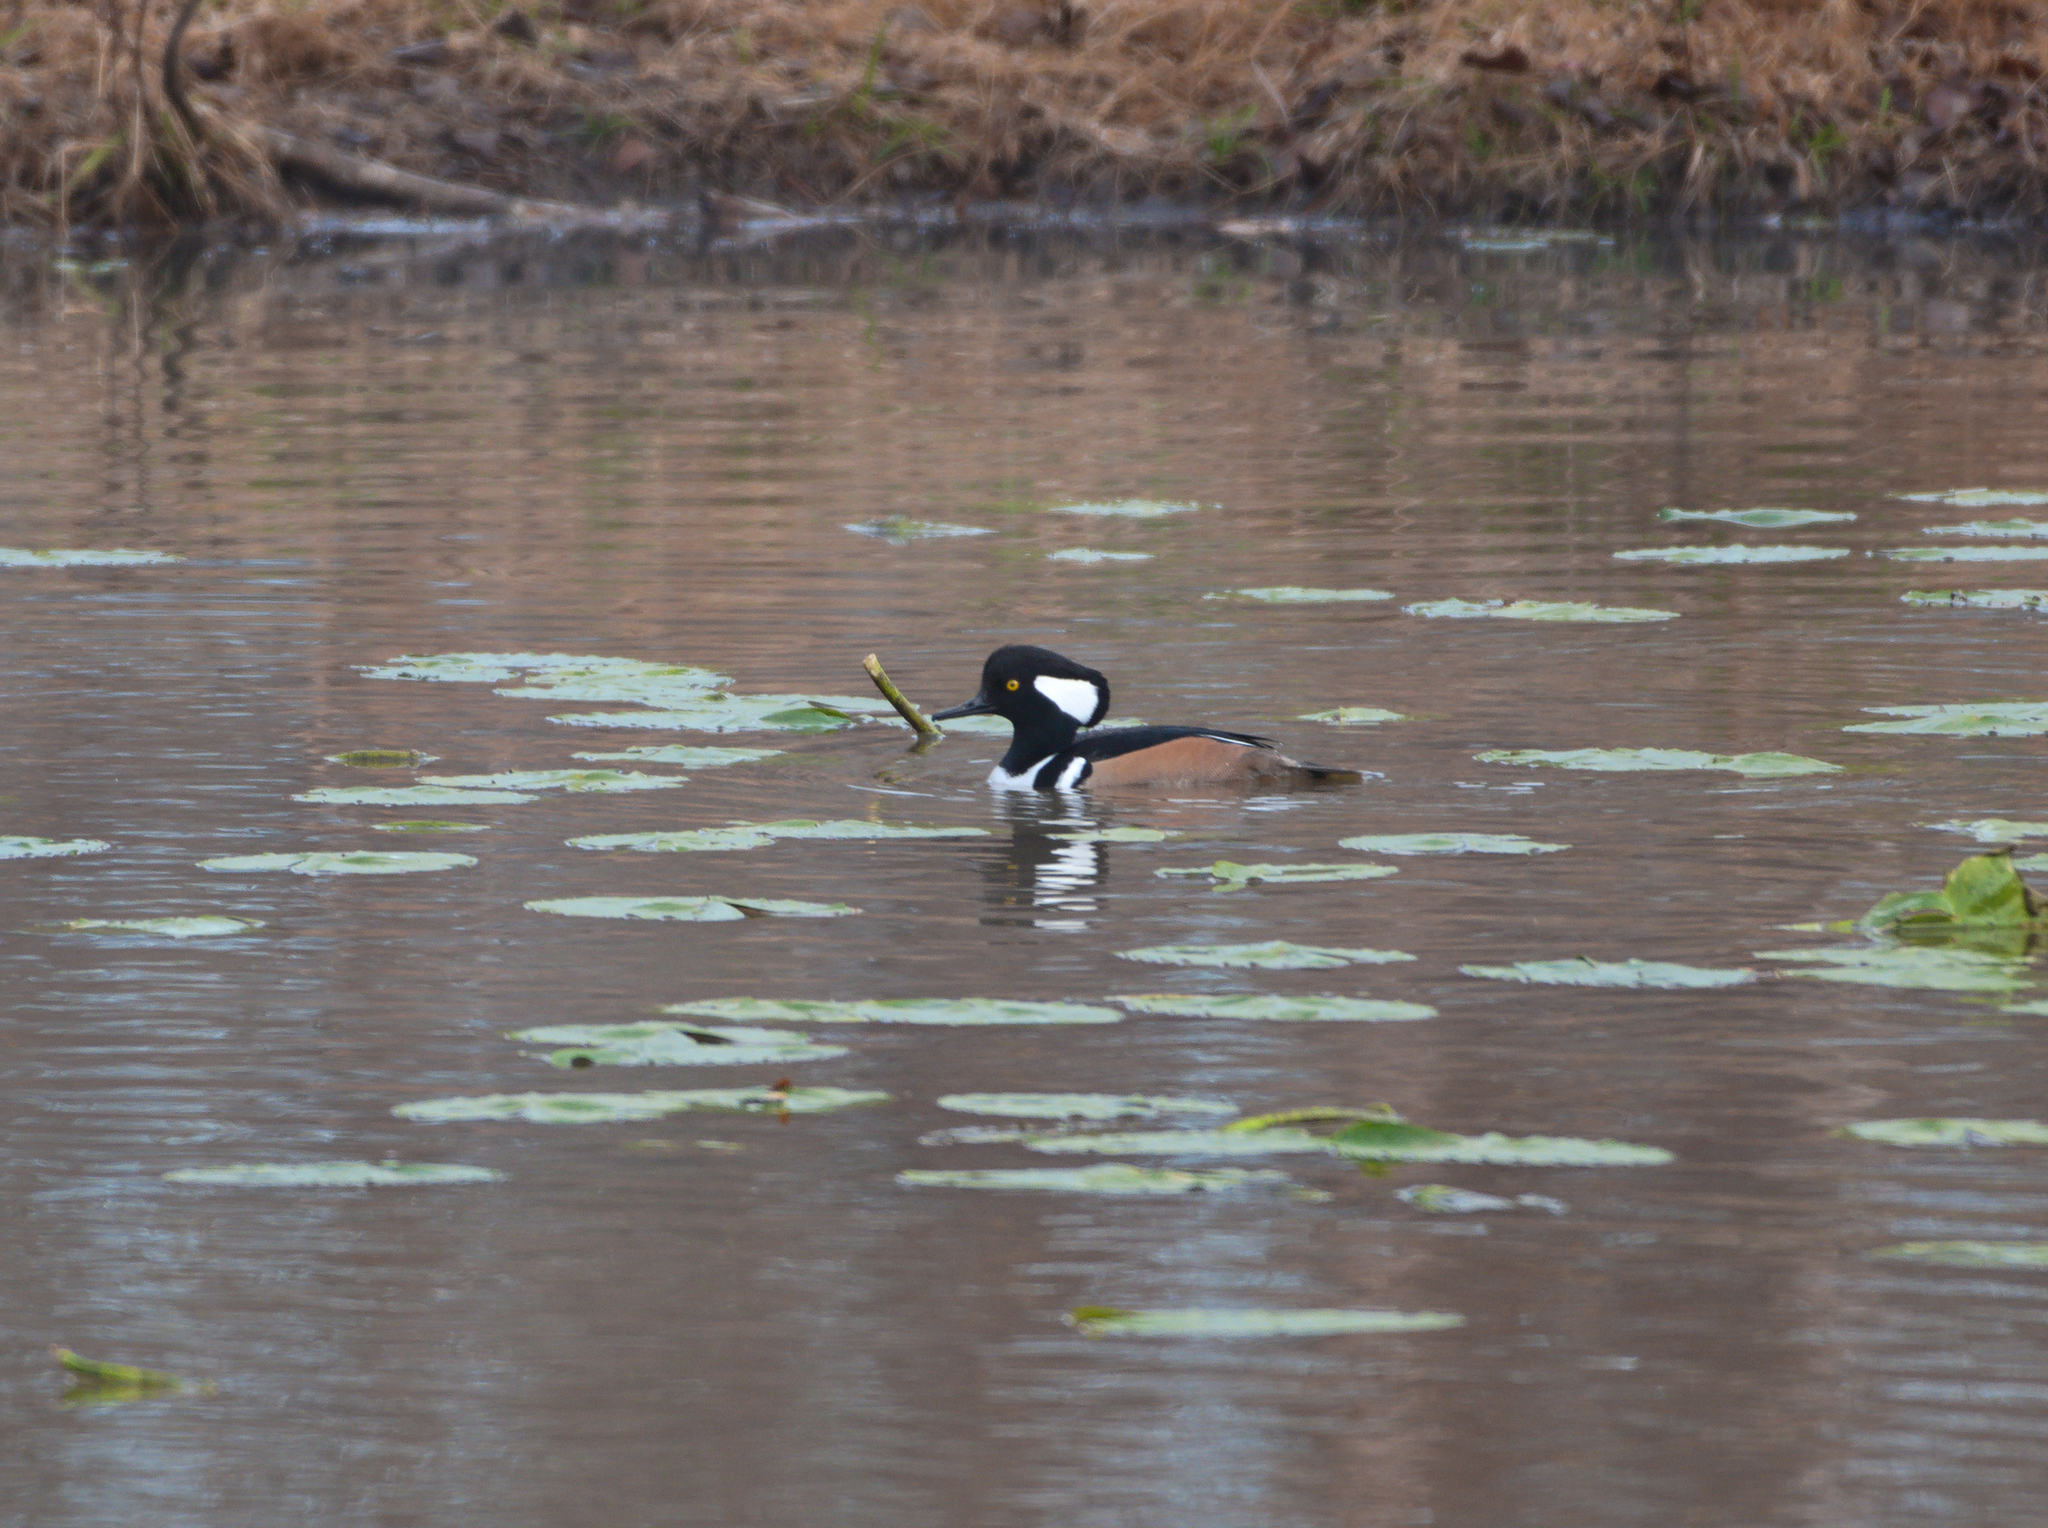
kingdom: Animalia
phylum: Chordata
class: Aves
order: Anseriformes
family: Anatidae
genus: Lophodytes
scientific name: Lophodytes cucullatus
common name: Hooded merganser
